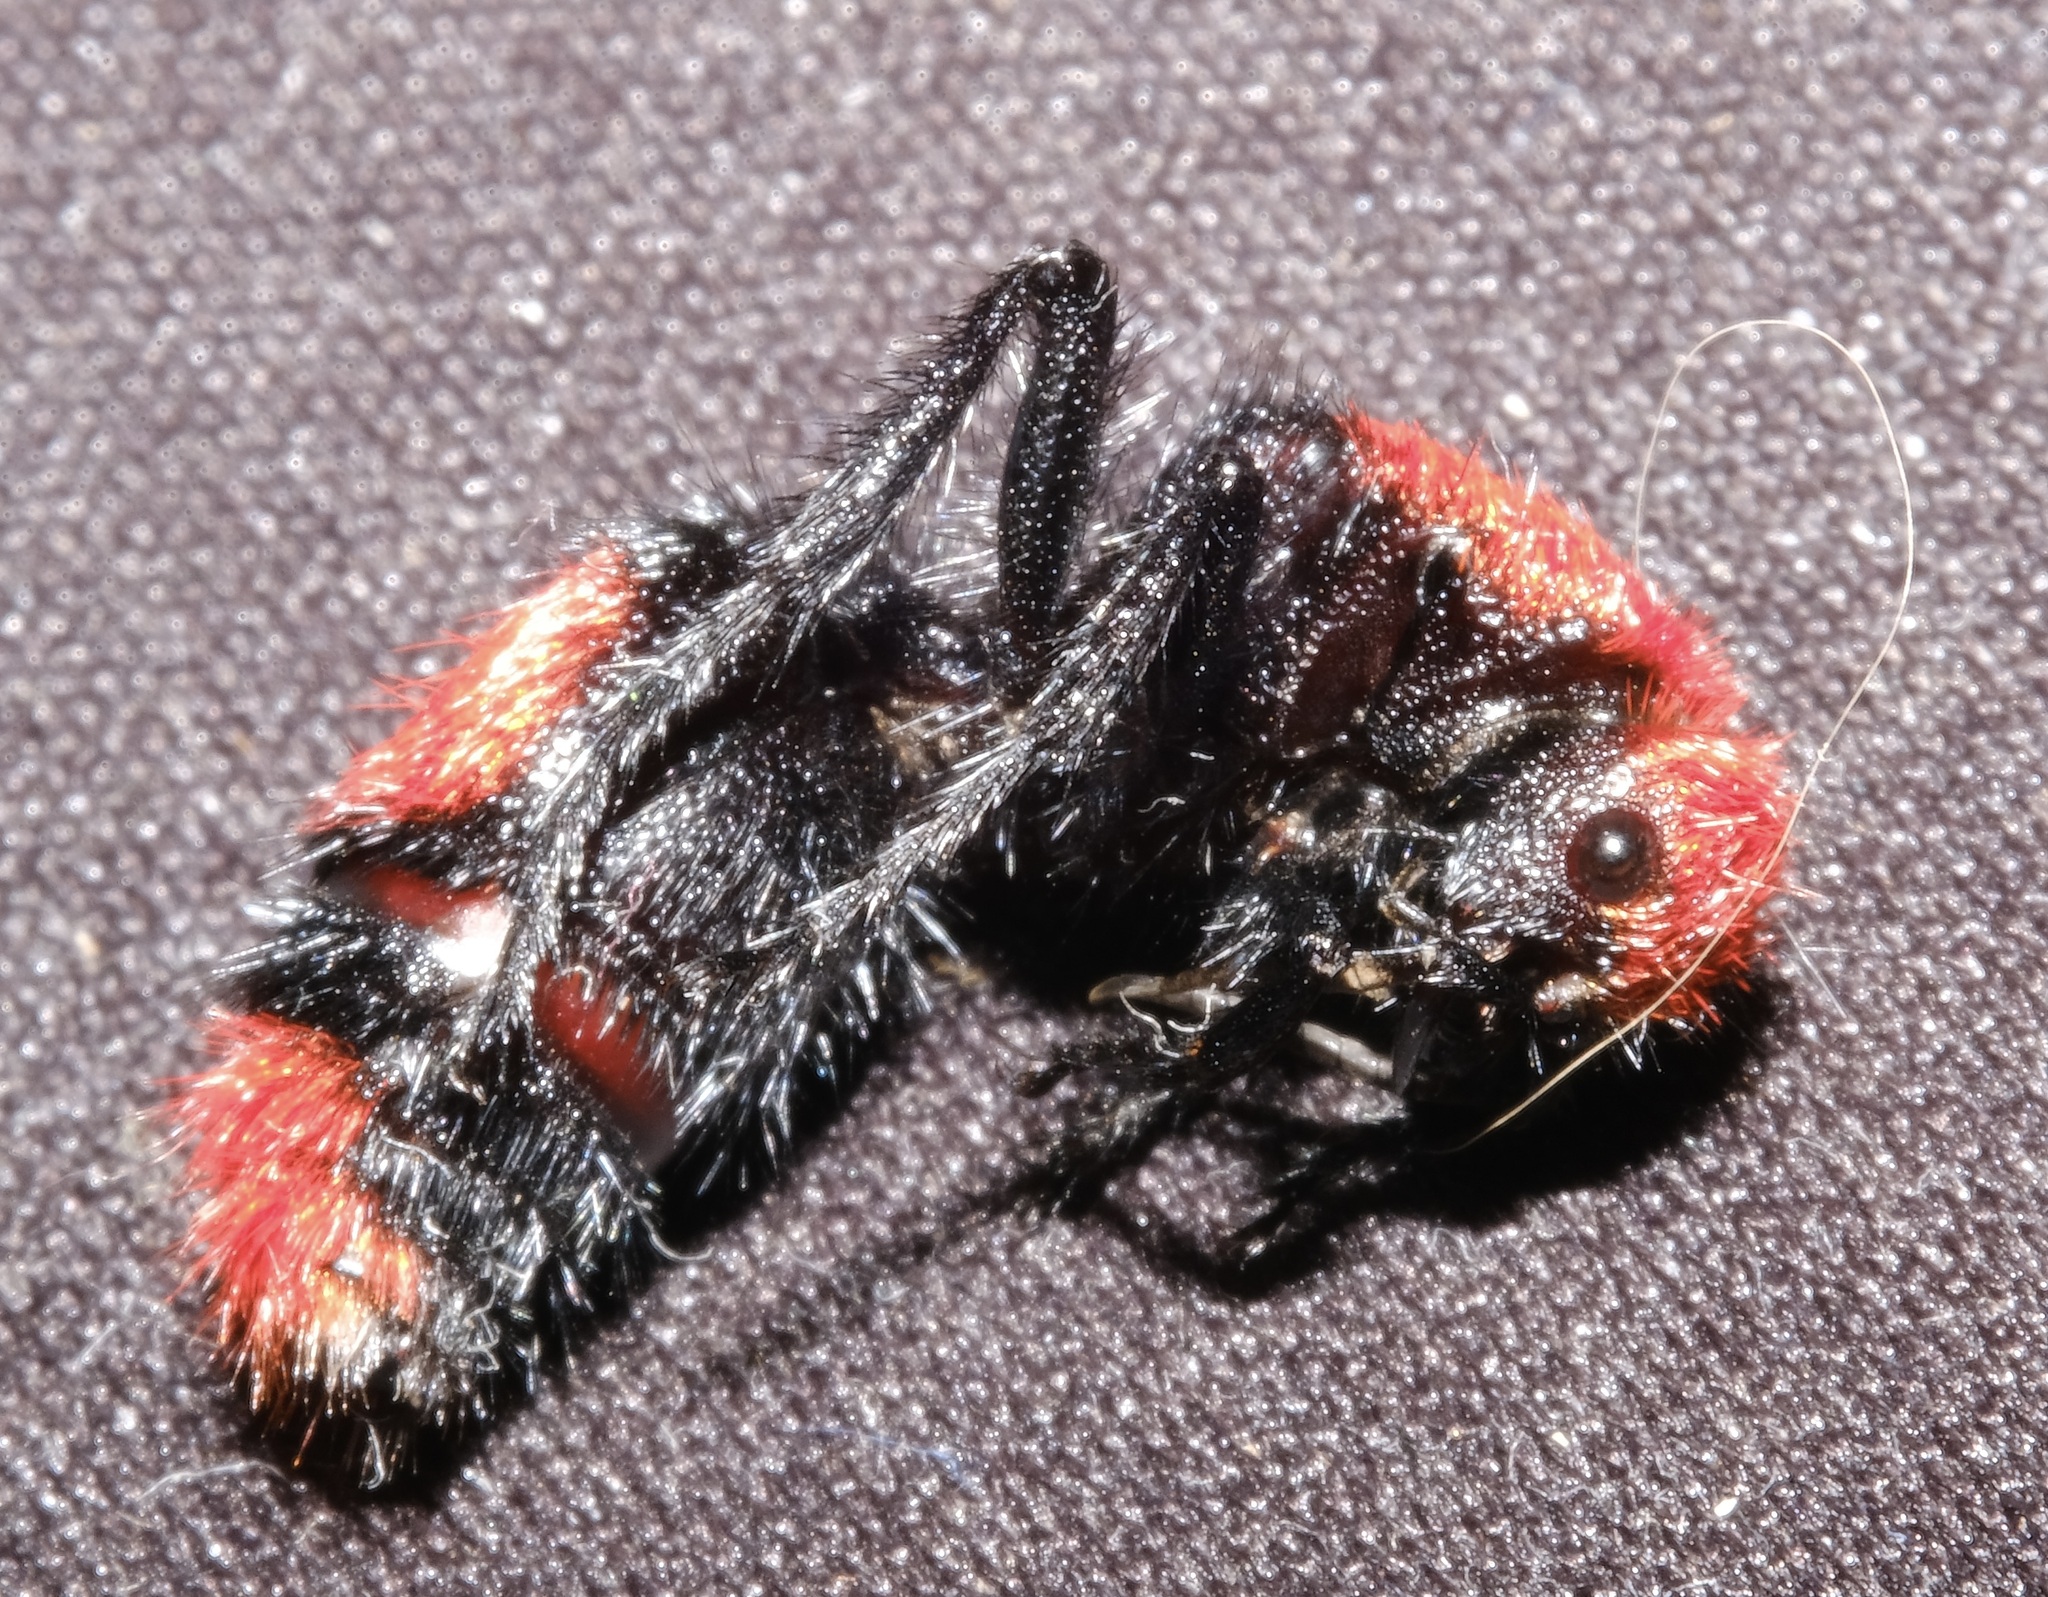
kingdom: Animalia
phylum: Arthropoda
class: Insecta
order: Hymenoptera
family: Mutillidae
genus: Dasymutilla
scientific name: Dasymutilla occidentalis
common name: Common eastern velvet ant
